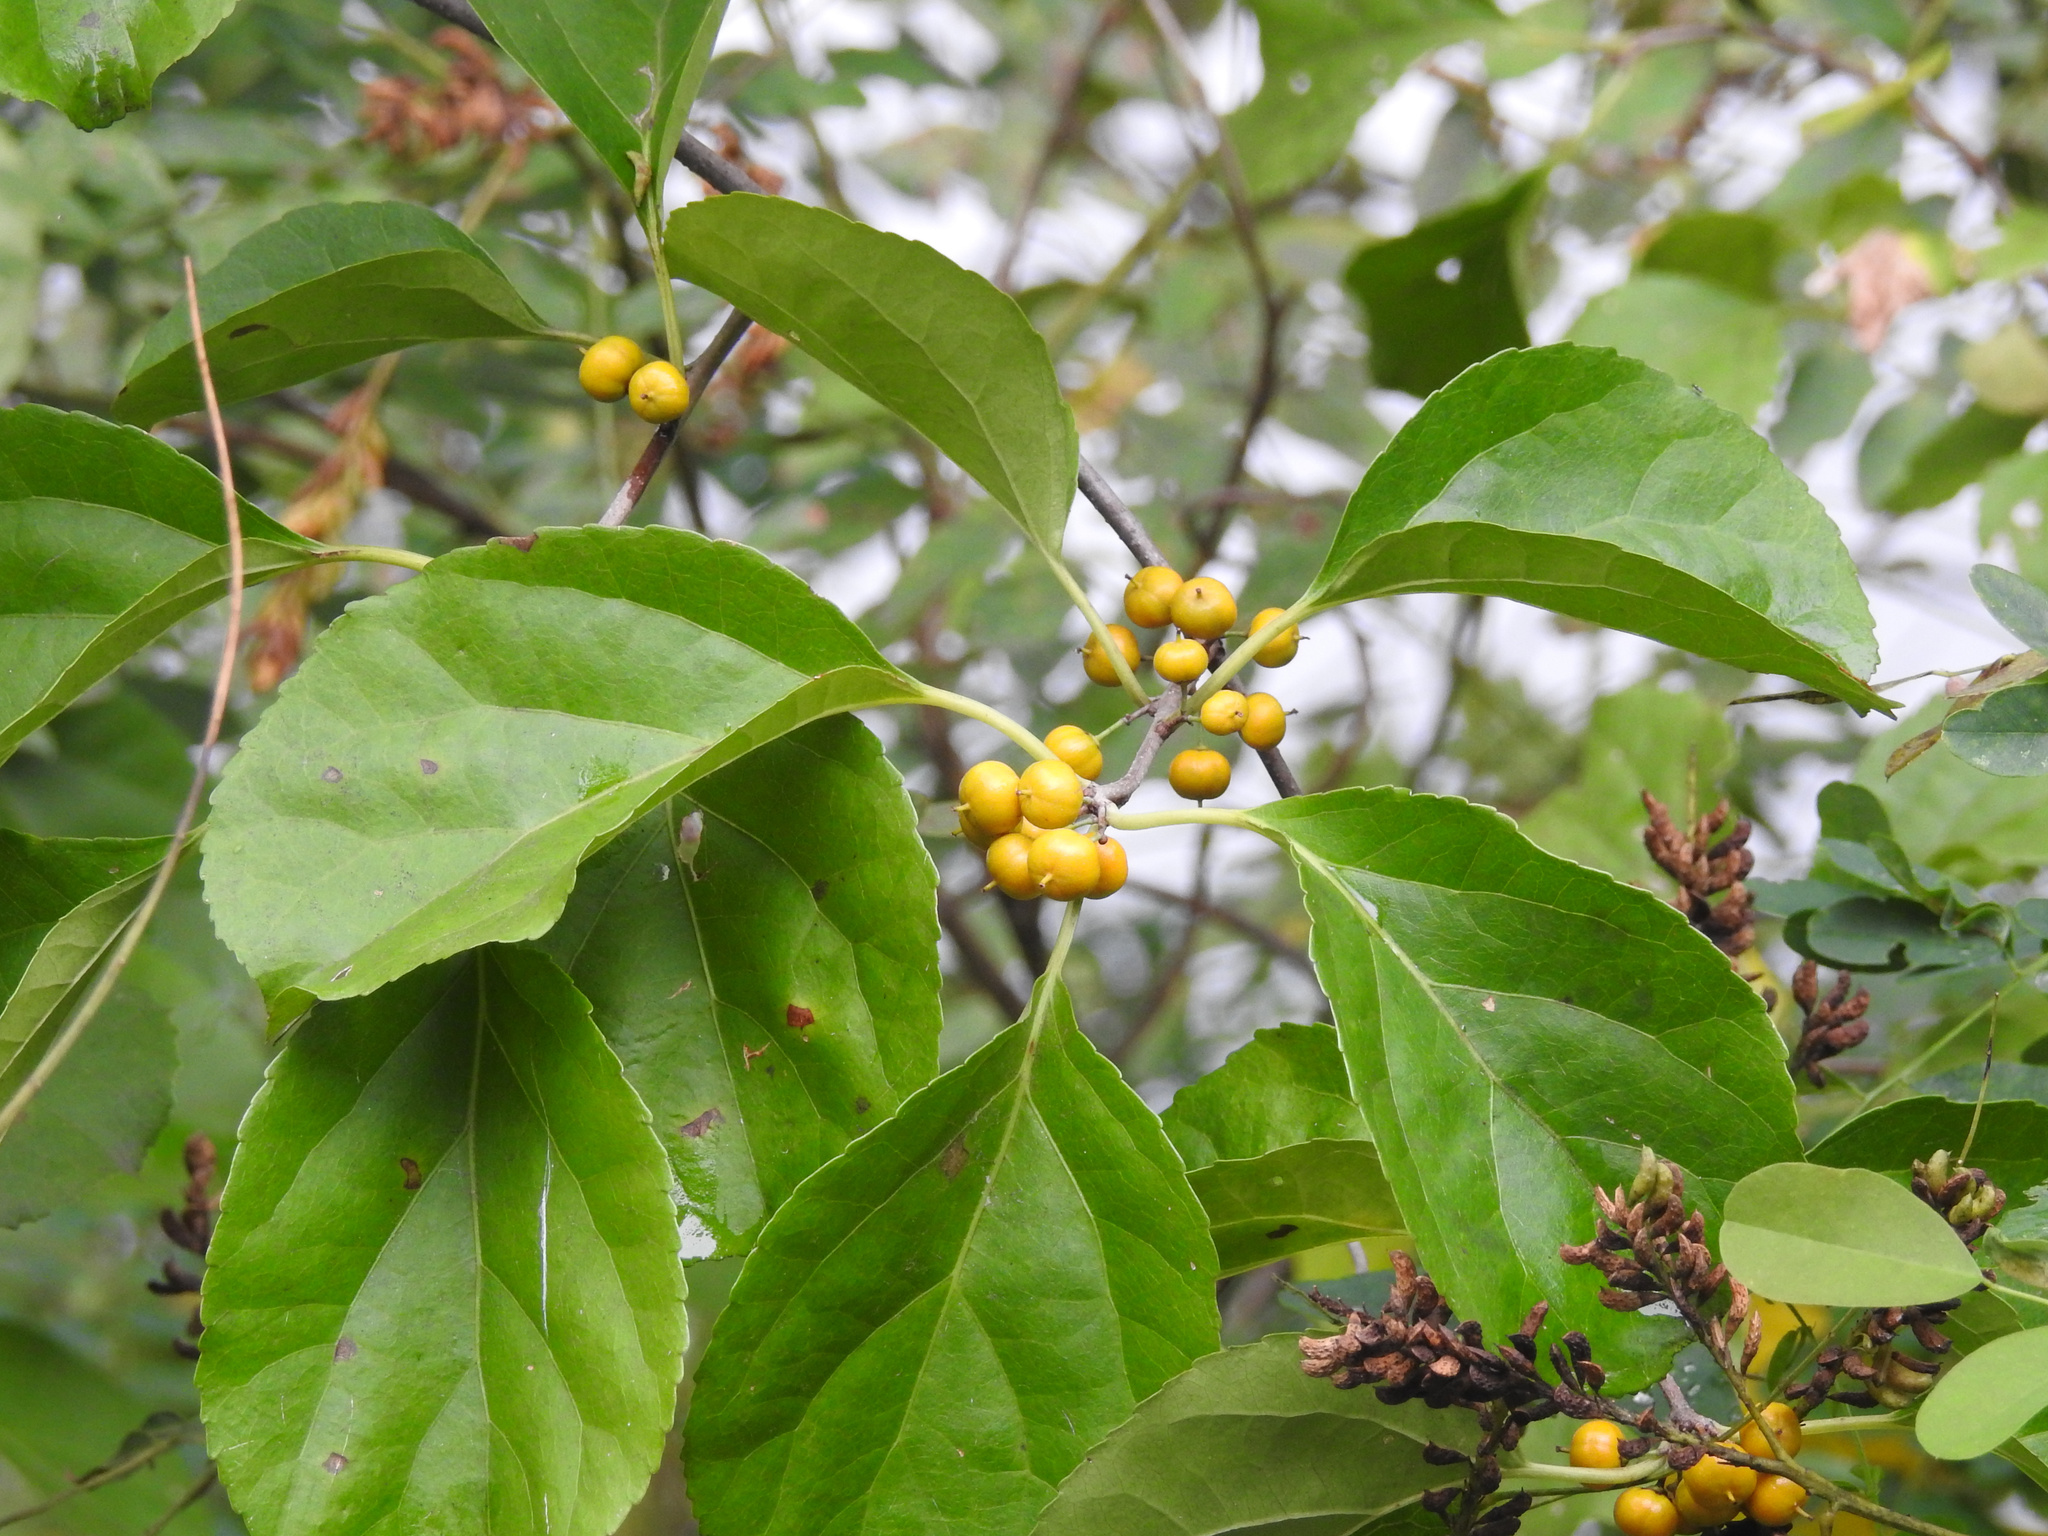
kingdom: Plantae
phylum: Tracheophyta
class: Magnoliopsida
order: Celastrales
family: Celastraceae
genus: Celastrus
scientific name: Celastrus orbiculatus
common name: Oriental bittersweet
